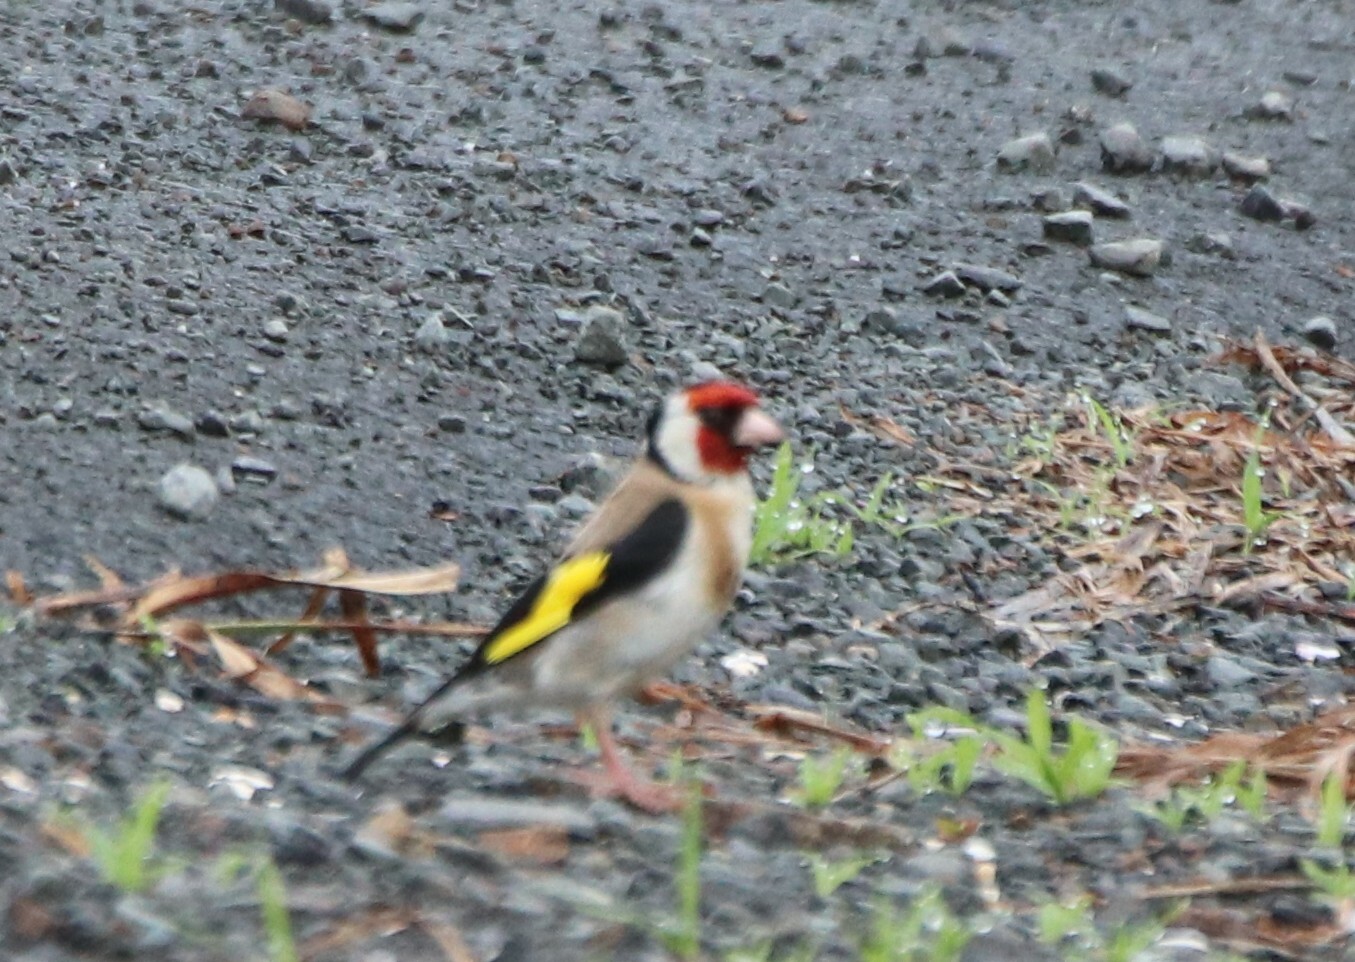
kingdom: Animalia
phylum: Chordata
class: Aves
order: Passeriformes
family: Fringillidae
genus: Carduelis
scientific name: Carduelis carduelis
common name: European goldfinch
